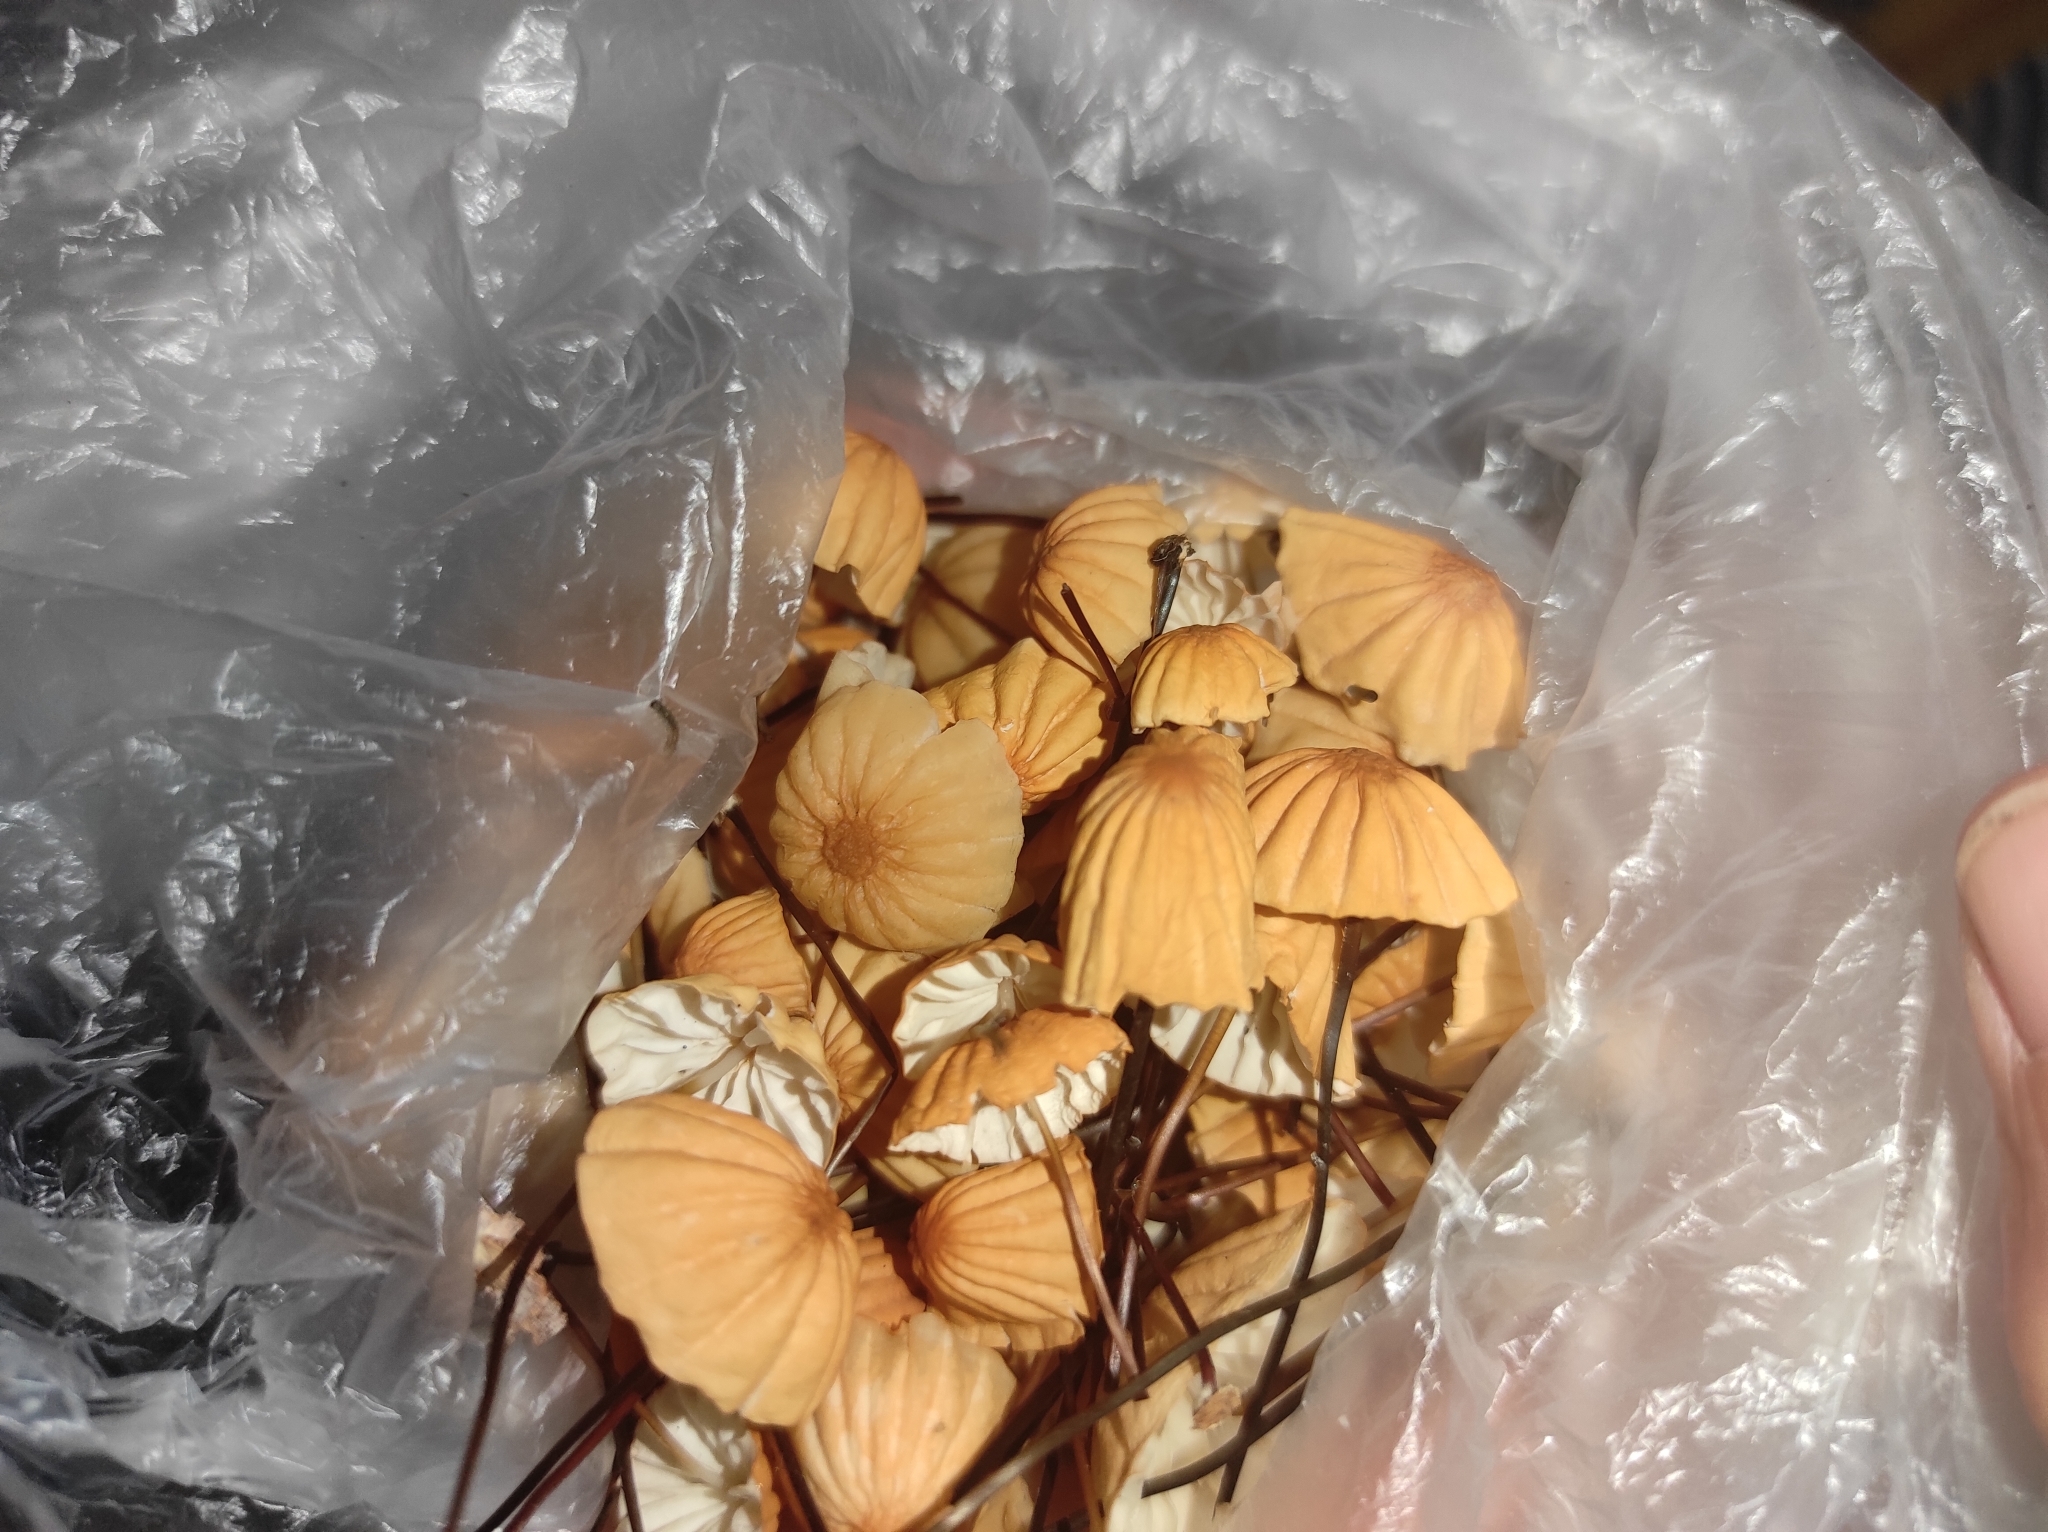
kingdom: Fungi
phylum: Basidiomycota
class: Agaricomycetes
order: Agaricales
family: Marasmiaceae
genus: Marasmius
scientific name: Marasmius siccus
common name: Orange pinwheel
